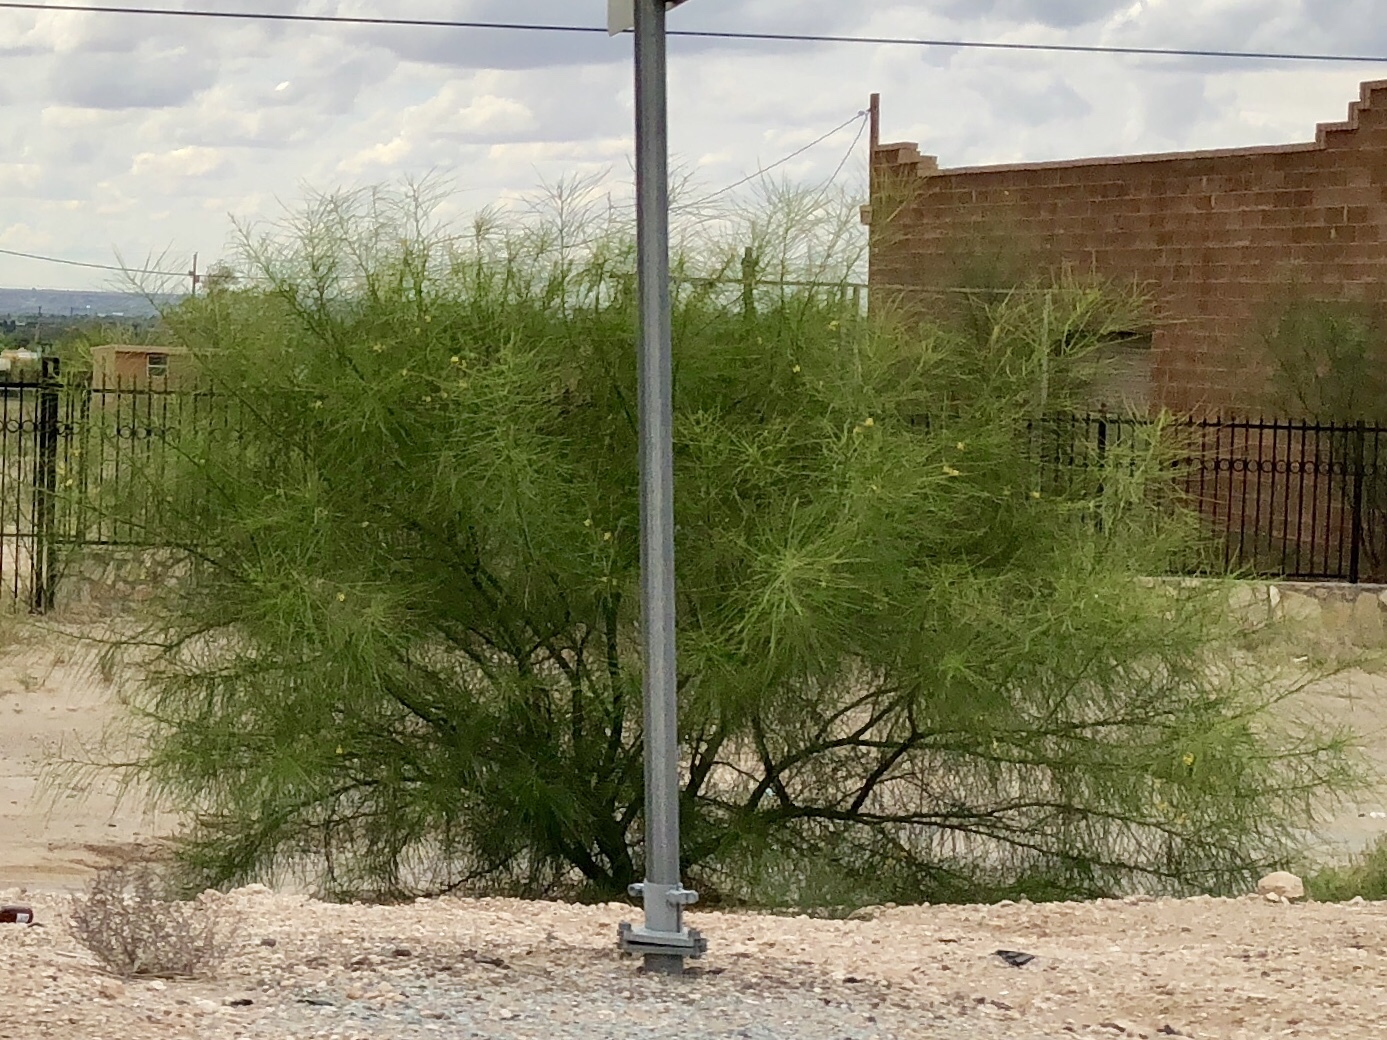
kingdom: Plantae
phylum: Tracheophyta
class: Magnoliopsida
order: Fabales
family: Fabaceae
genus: Parkinsonia
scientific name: Parkinsonia aculeata
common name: Jerusalem thorn
